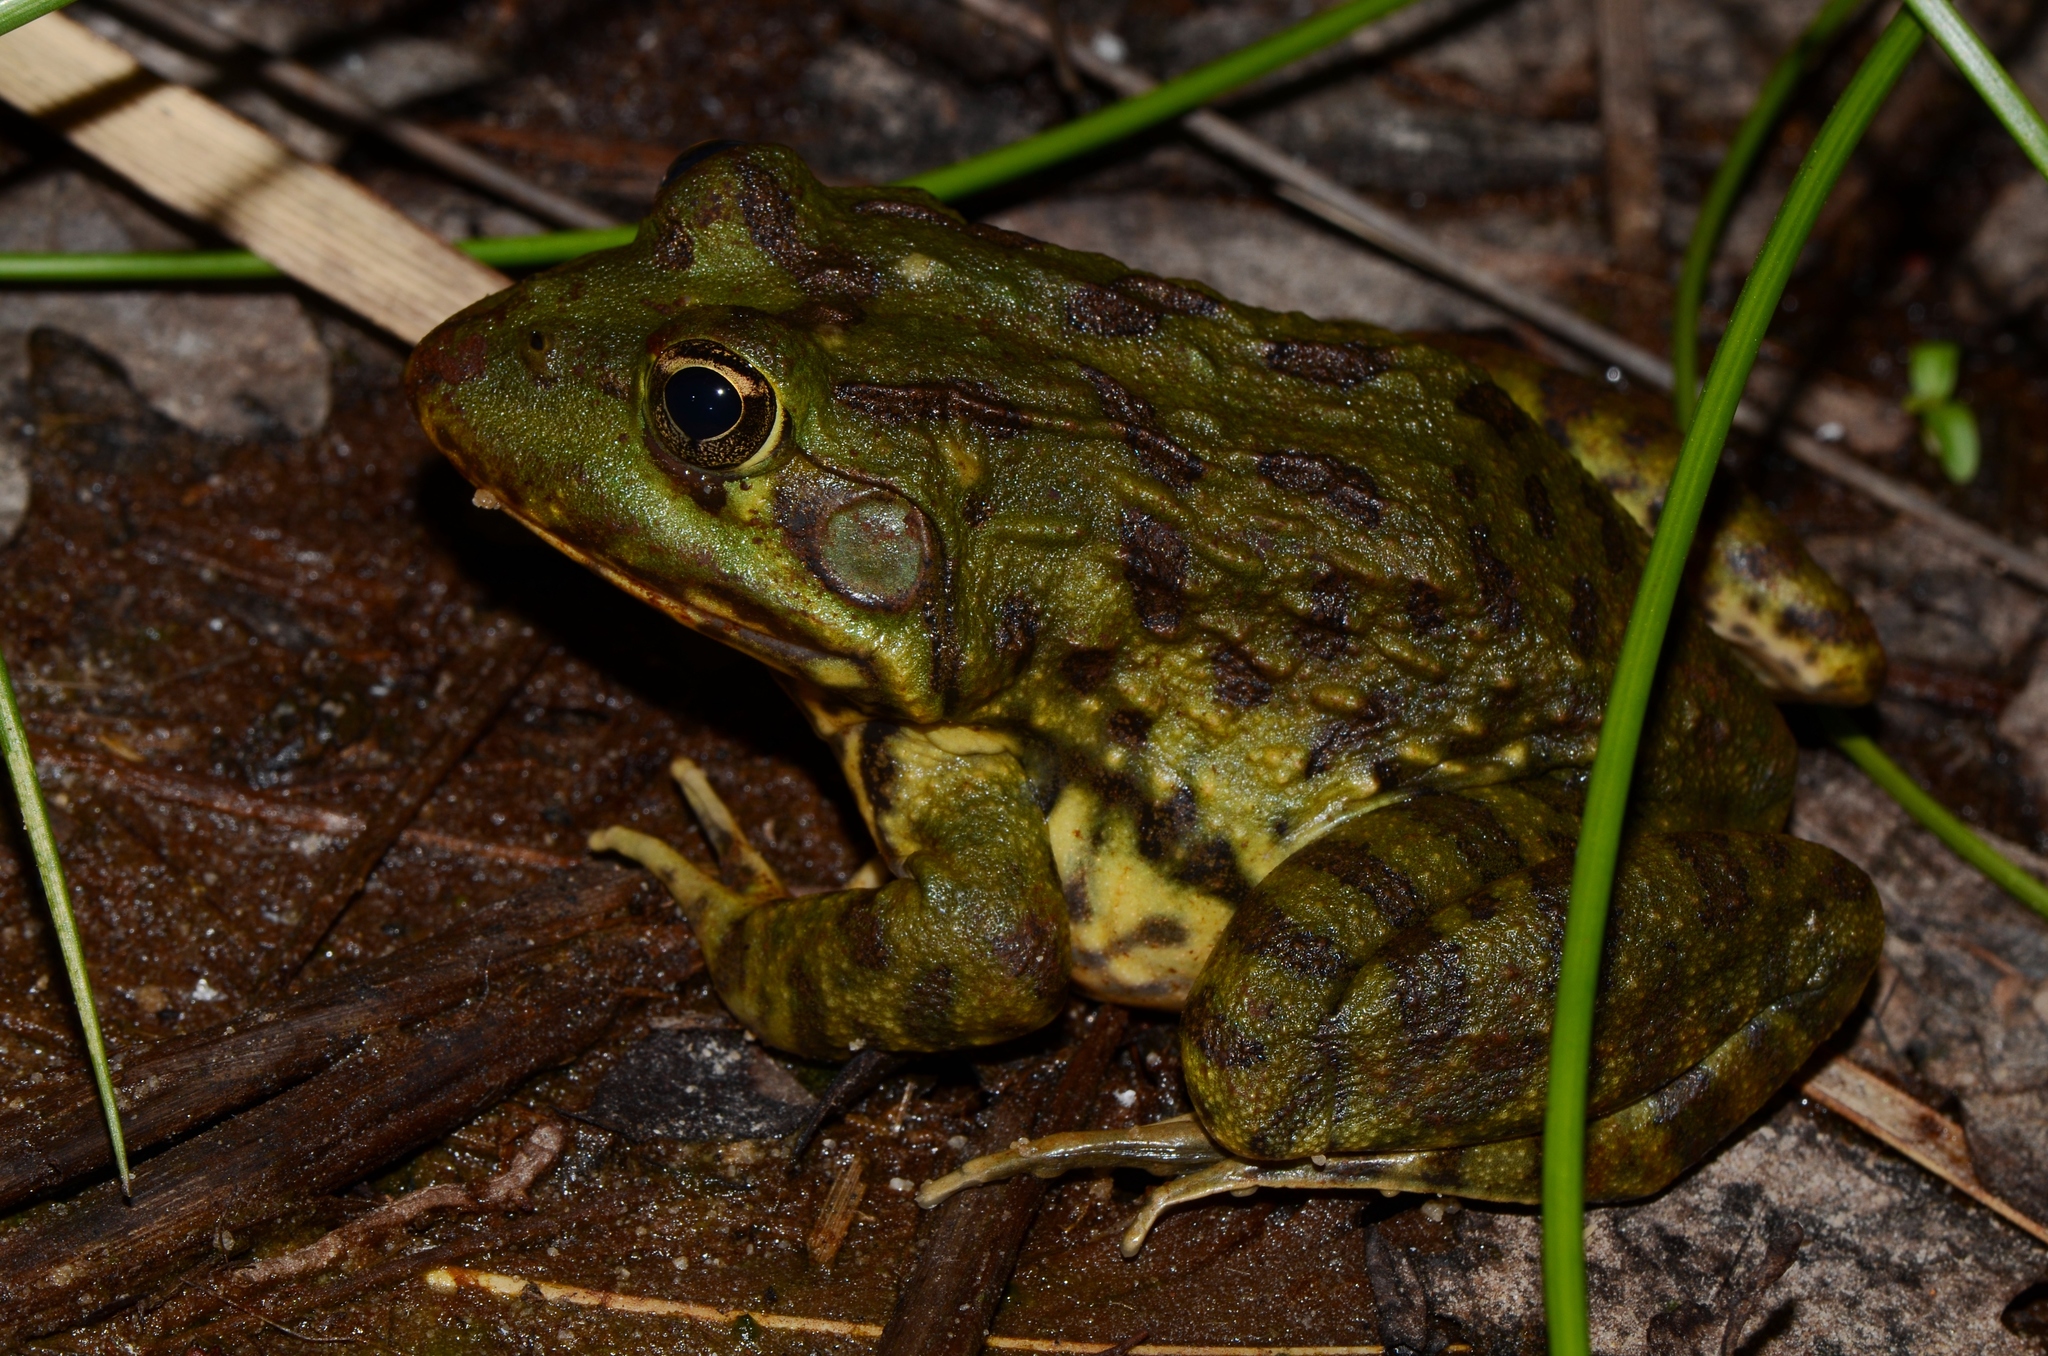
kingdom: Animalia
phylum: Chordata
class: Amphibia
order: Anura
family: Pyxicephalidae
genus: Amietia
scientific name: Amietia fuscigula
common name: Cape rana
